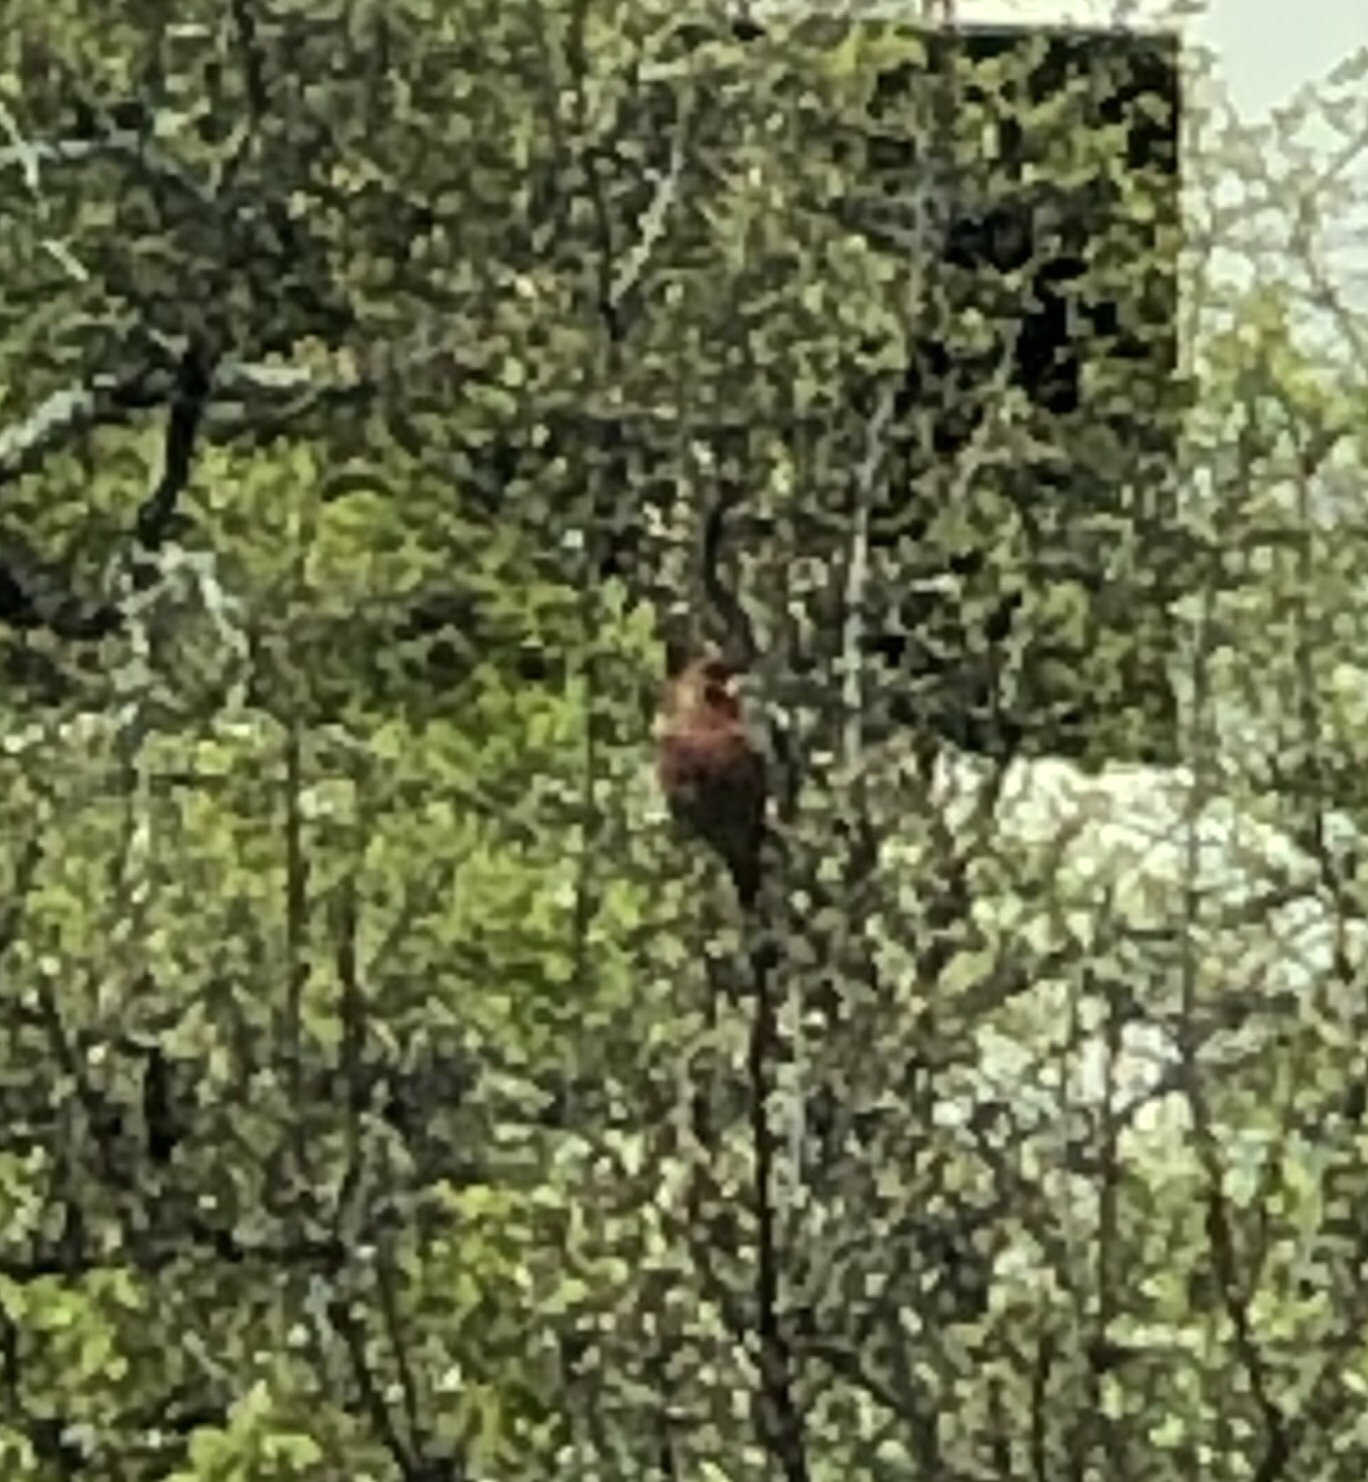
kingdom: Animalia
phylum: Chordata
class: Aves
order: Passeriformes
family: Fringillidae
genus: Haemorhous
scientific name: Haemorhous mexicanus
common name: House finch
